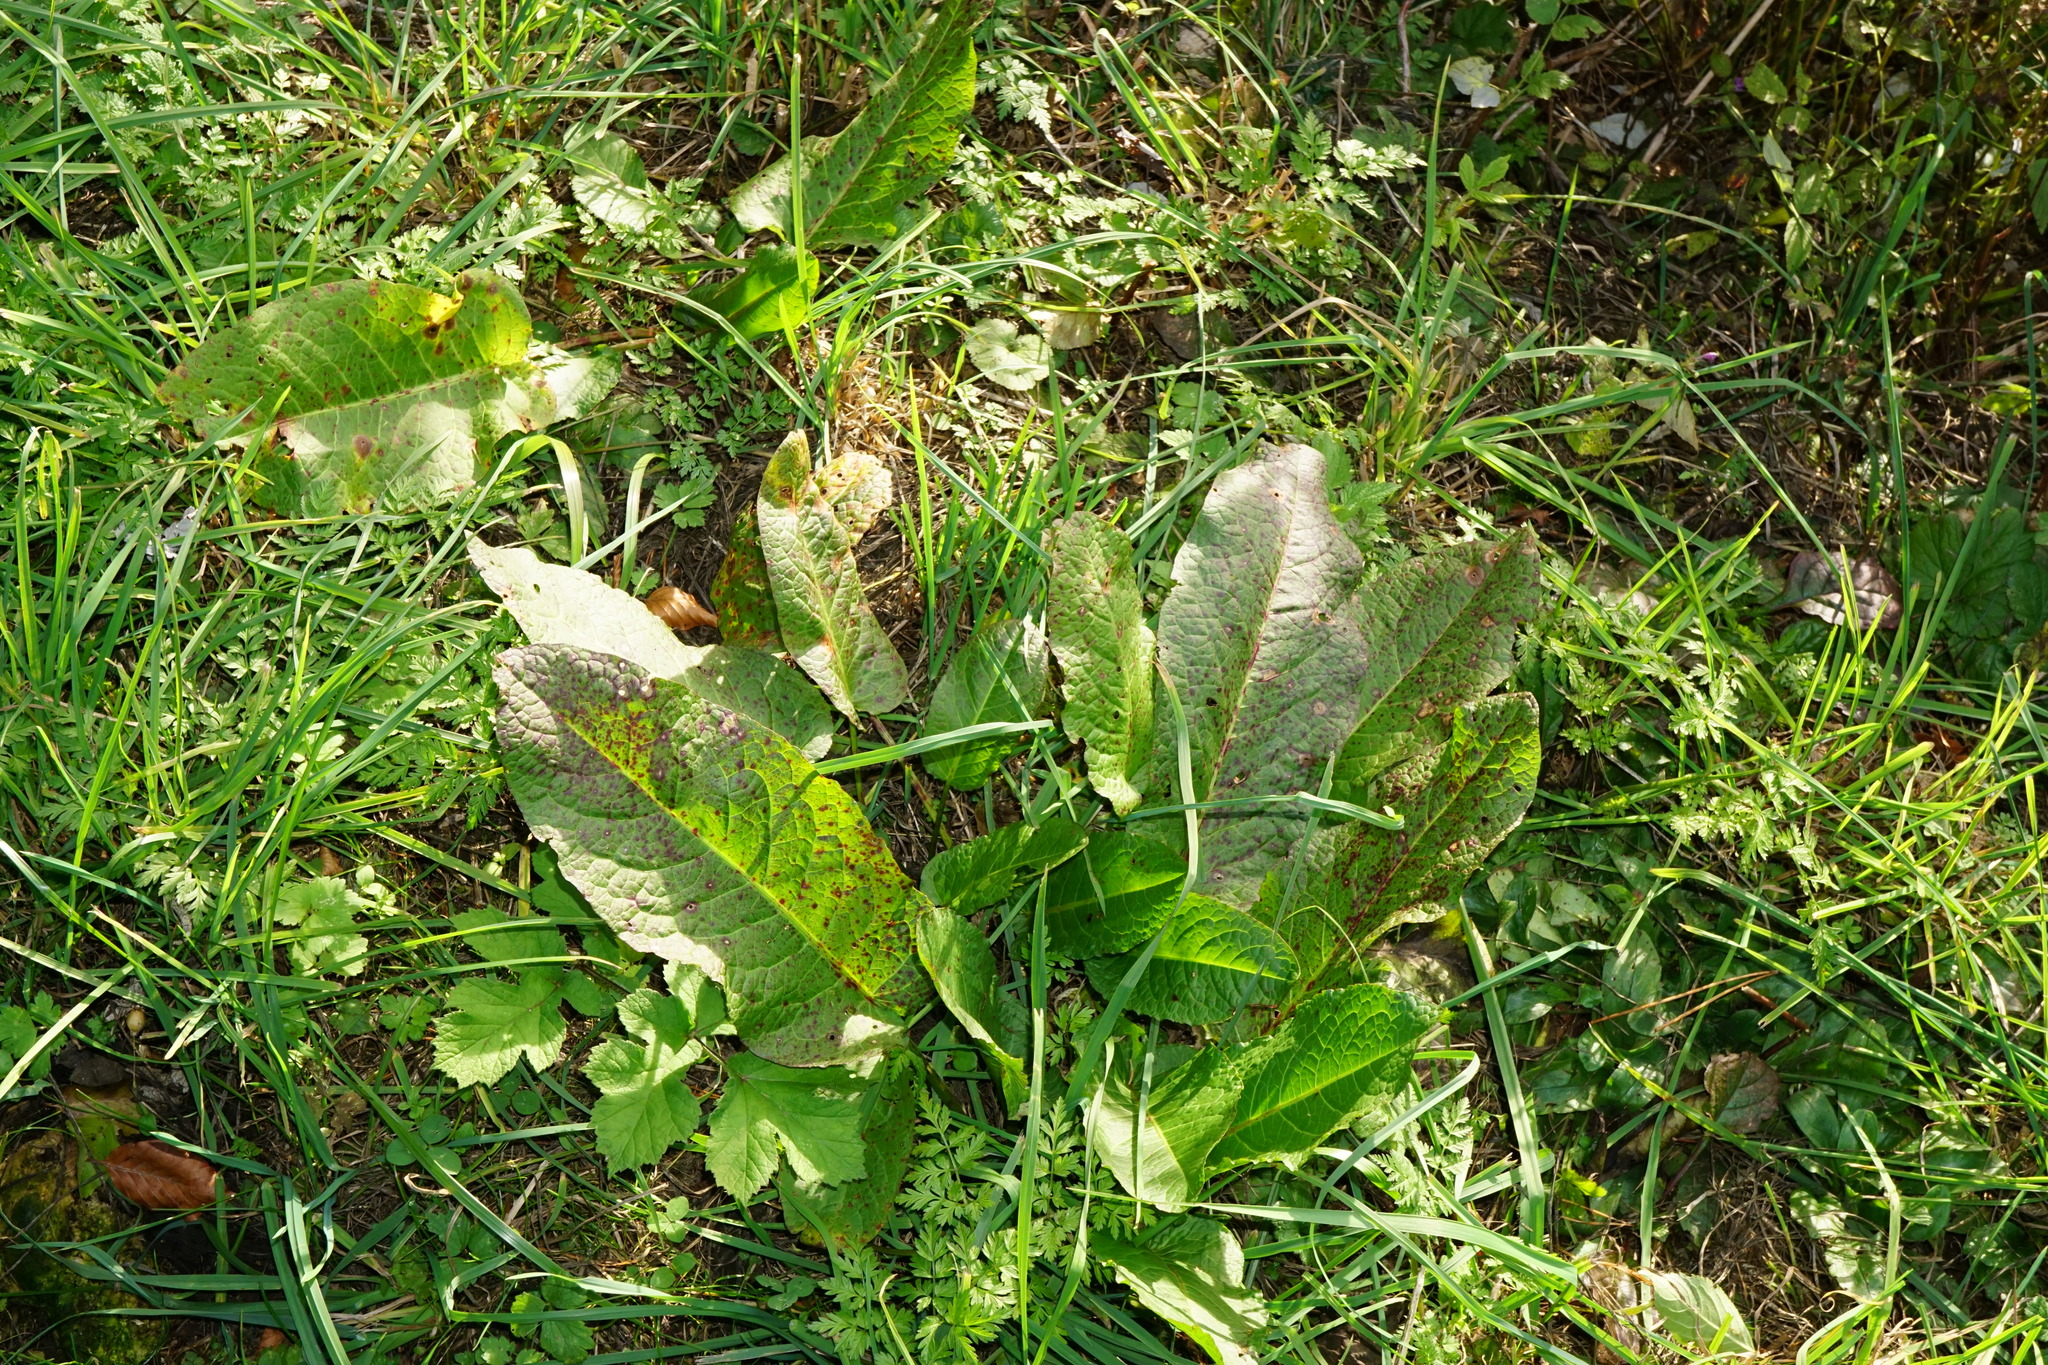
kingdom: Plantae
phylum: Tracheophyta
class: Magnoliopsida
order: Caryophyllales
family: Polygonaceae
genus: Rumex
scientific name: Rumex obtusifolius
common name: Bitter dock
